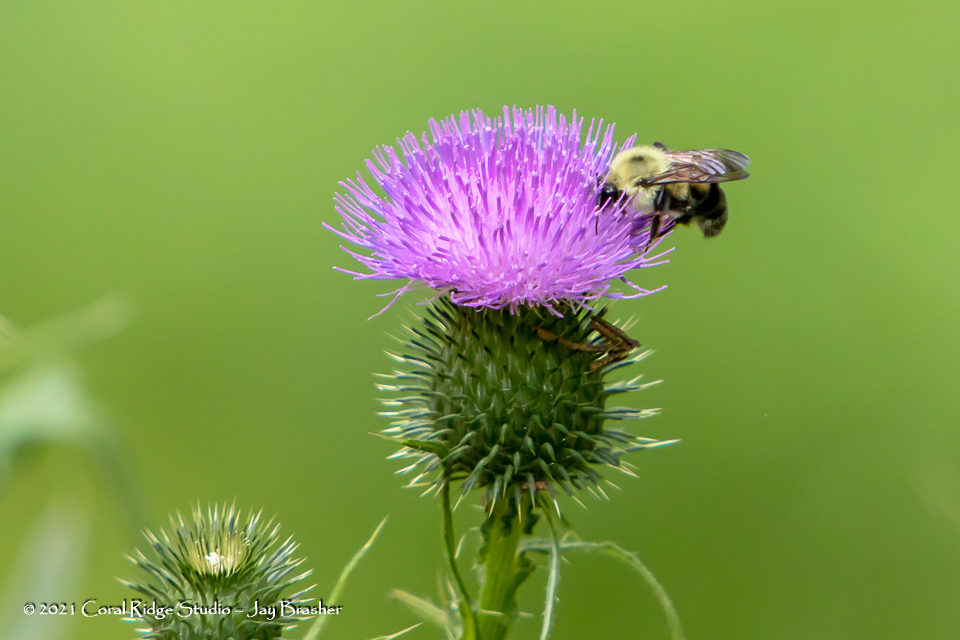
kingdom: Plantae
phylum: Tracheophyta
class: Magnoliopsida
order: Asterales
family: Asteraceae
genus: Cirsium
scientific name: Cirsium vulgare
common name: Bull thistle
